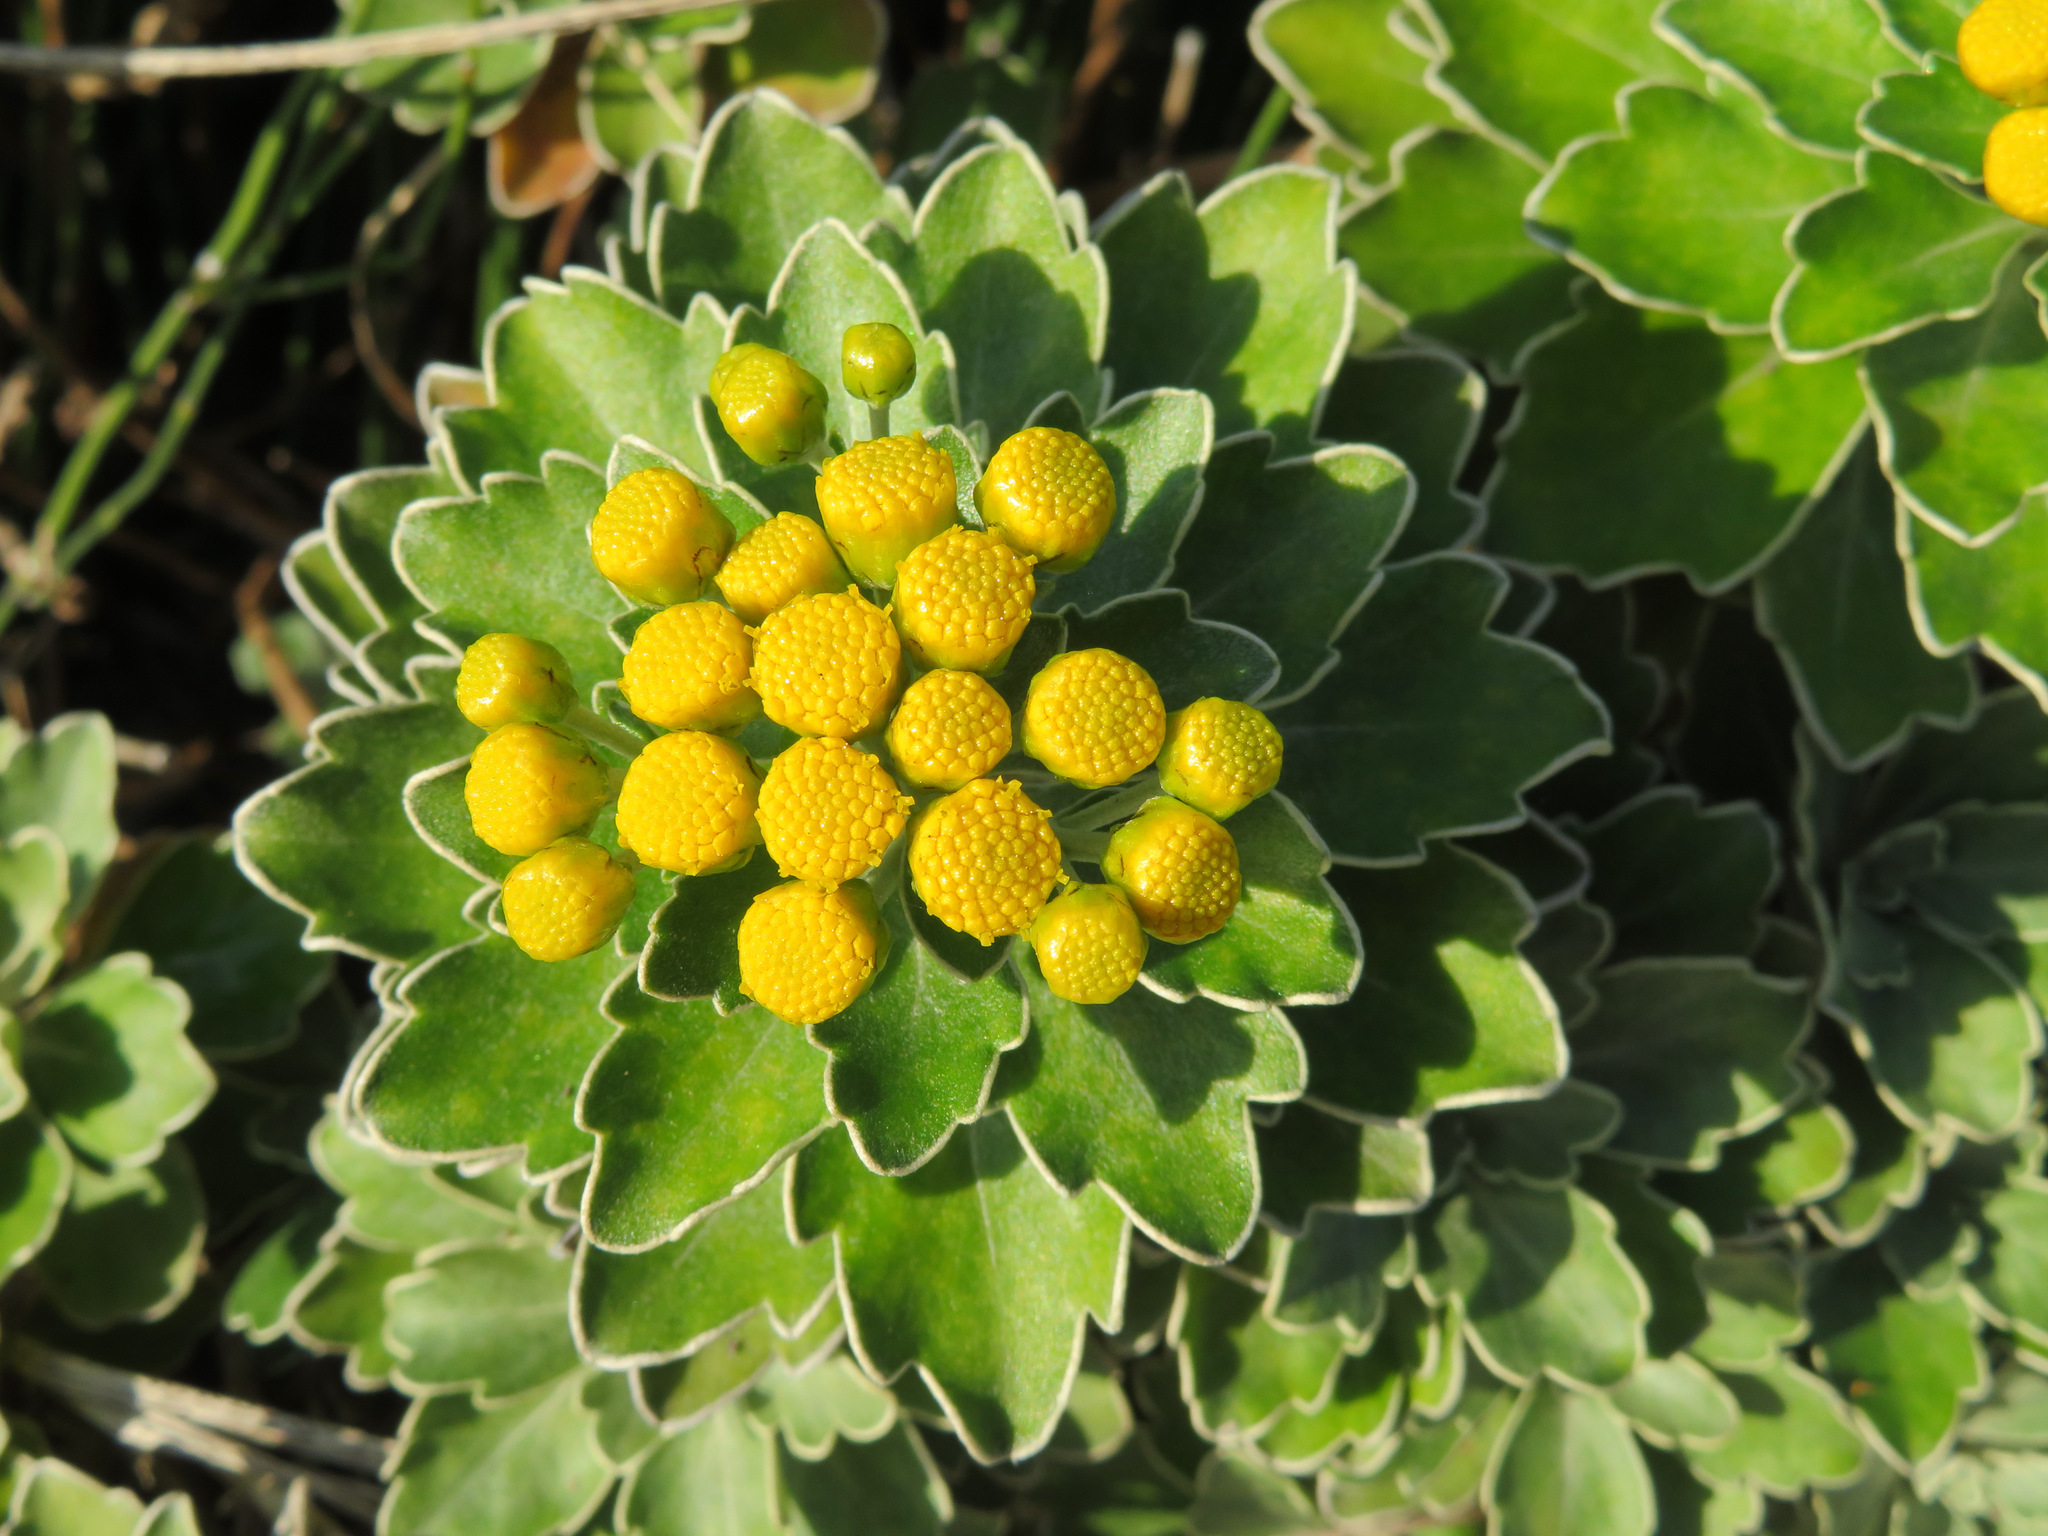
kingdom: Plantae
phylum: Tracheophyta
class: Magnoliopsida
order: Asterales
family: Asteraceae
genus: Ajania
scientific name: Ajania pacifica
